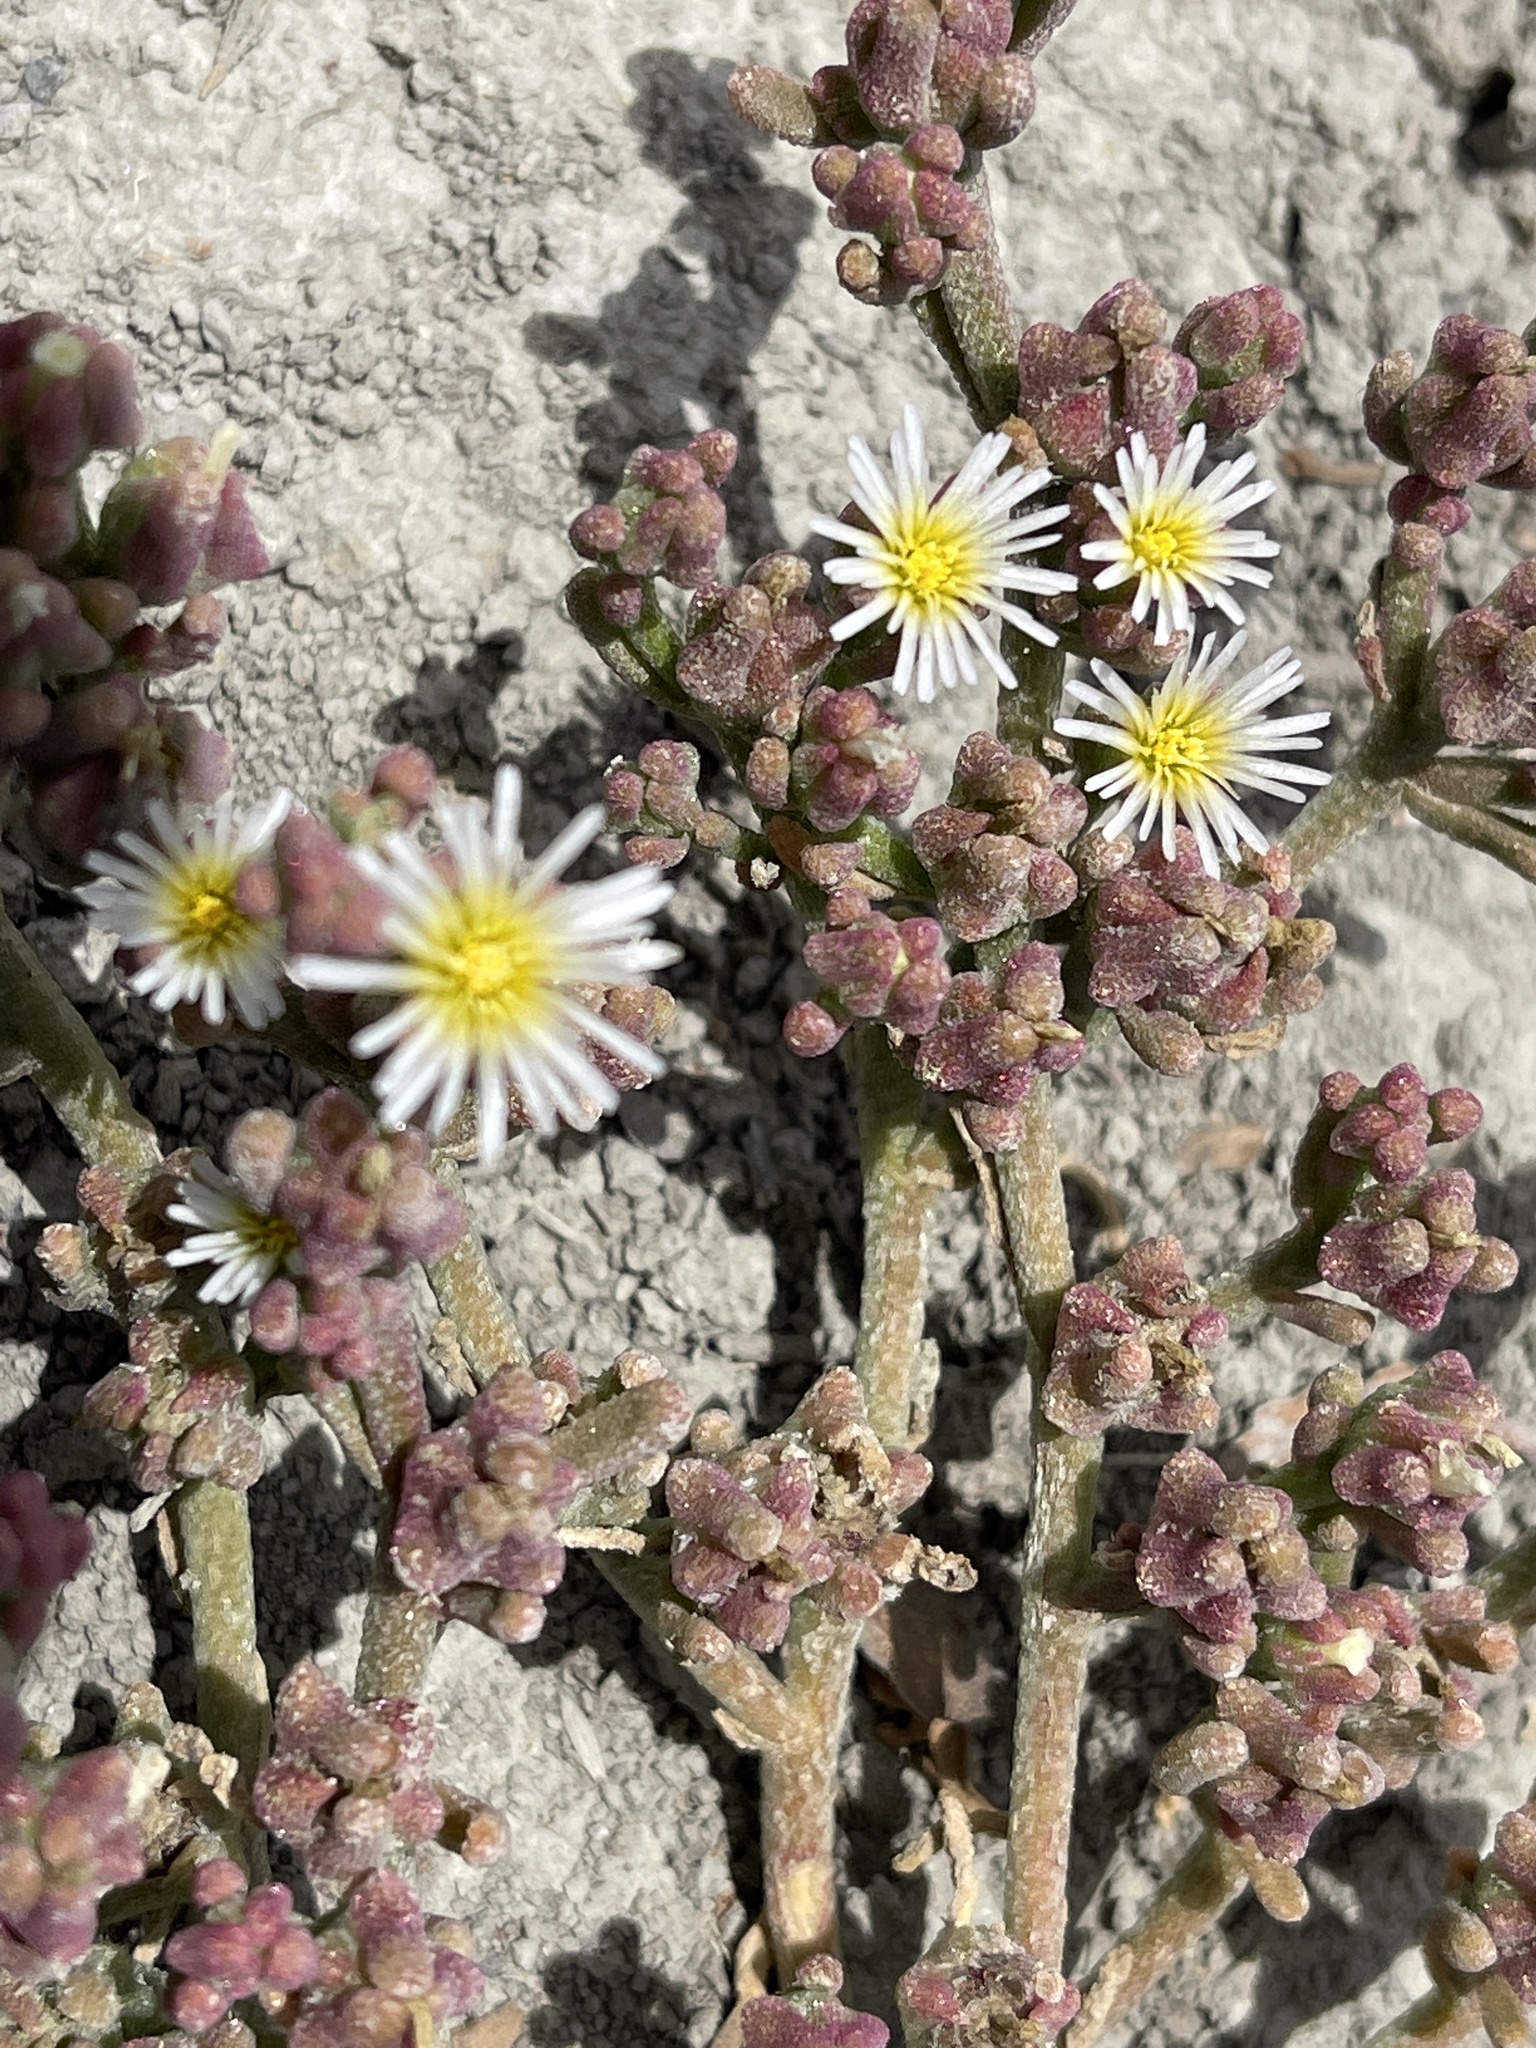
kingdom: Plantae
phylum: Tracheophyta
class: Magnoliopsida
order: Caryophyllales
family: Aizoaceae
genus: Mesembryanthemum
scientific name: Mesembryanthemum nodiflorum
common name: Slenderleaf iceplant
